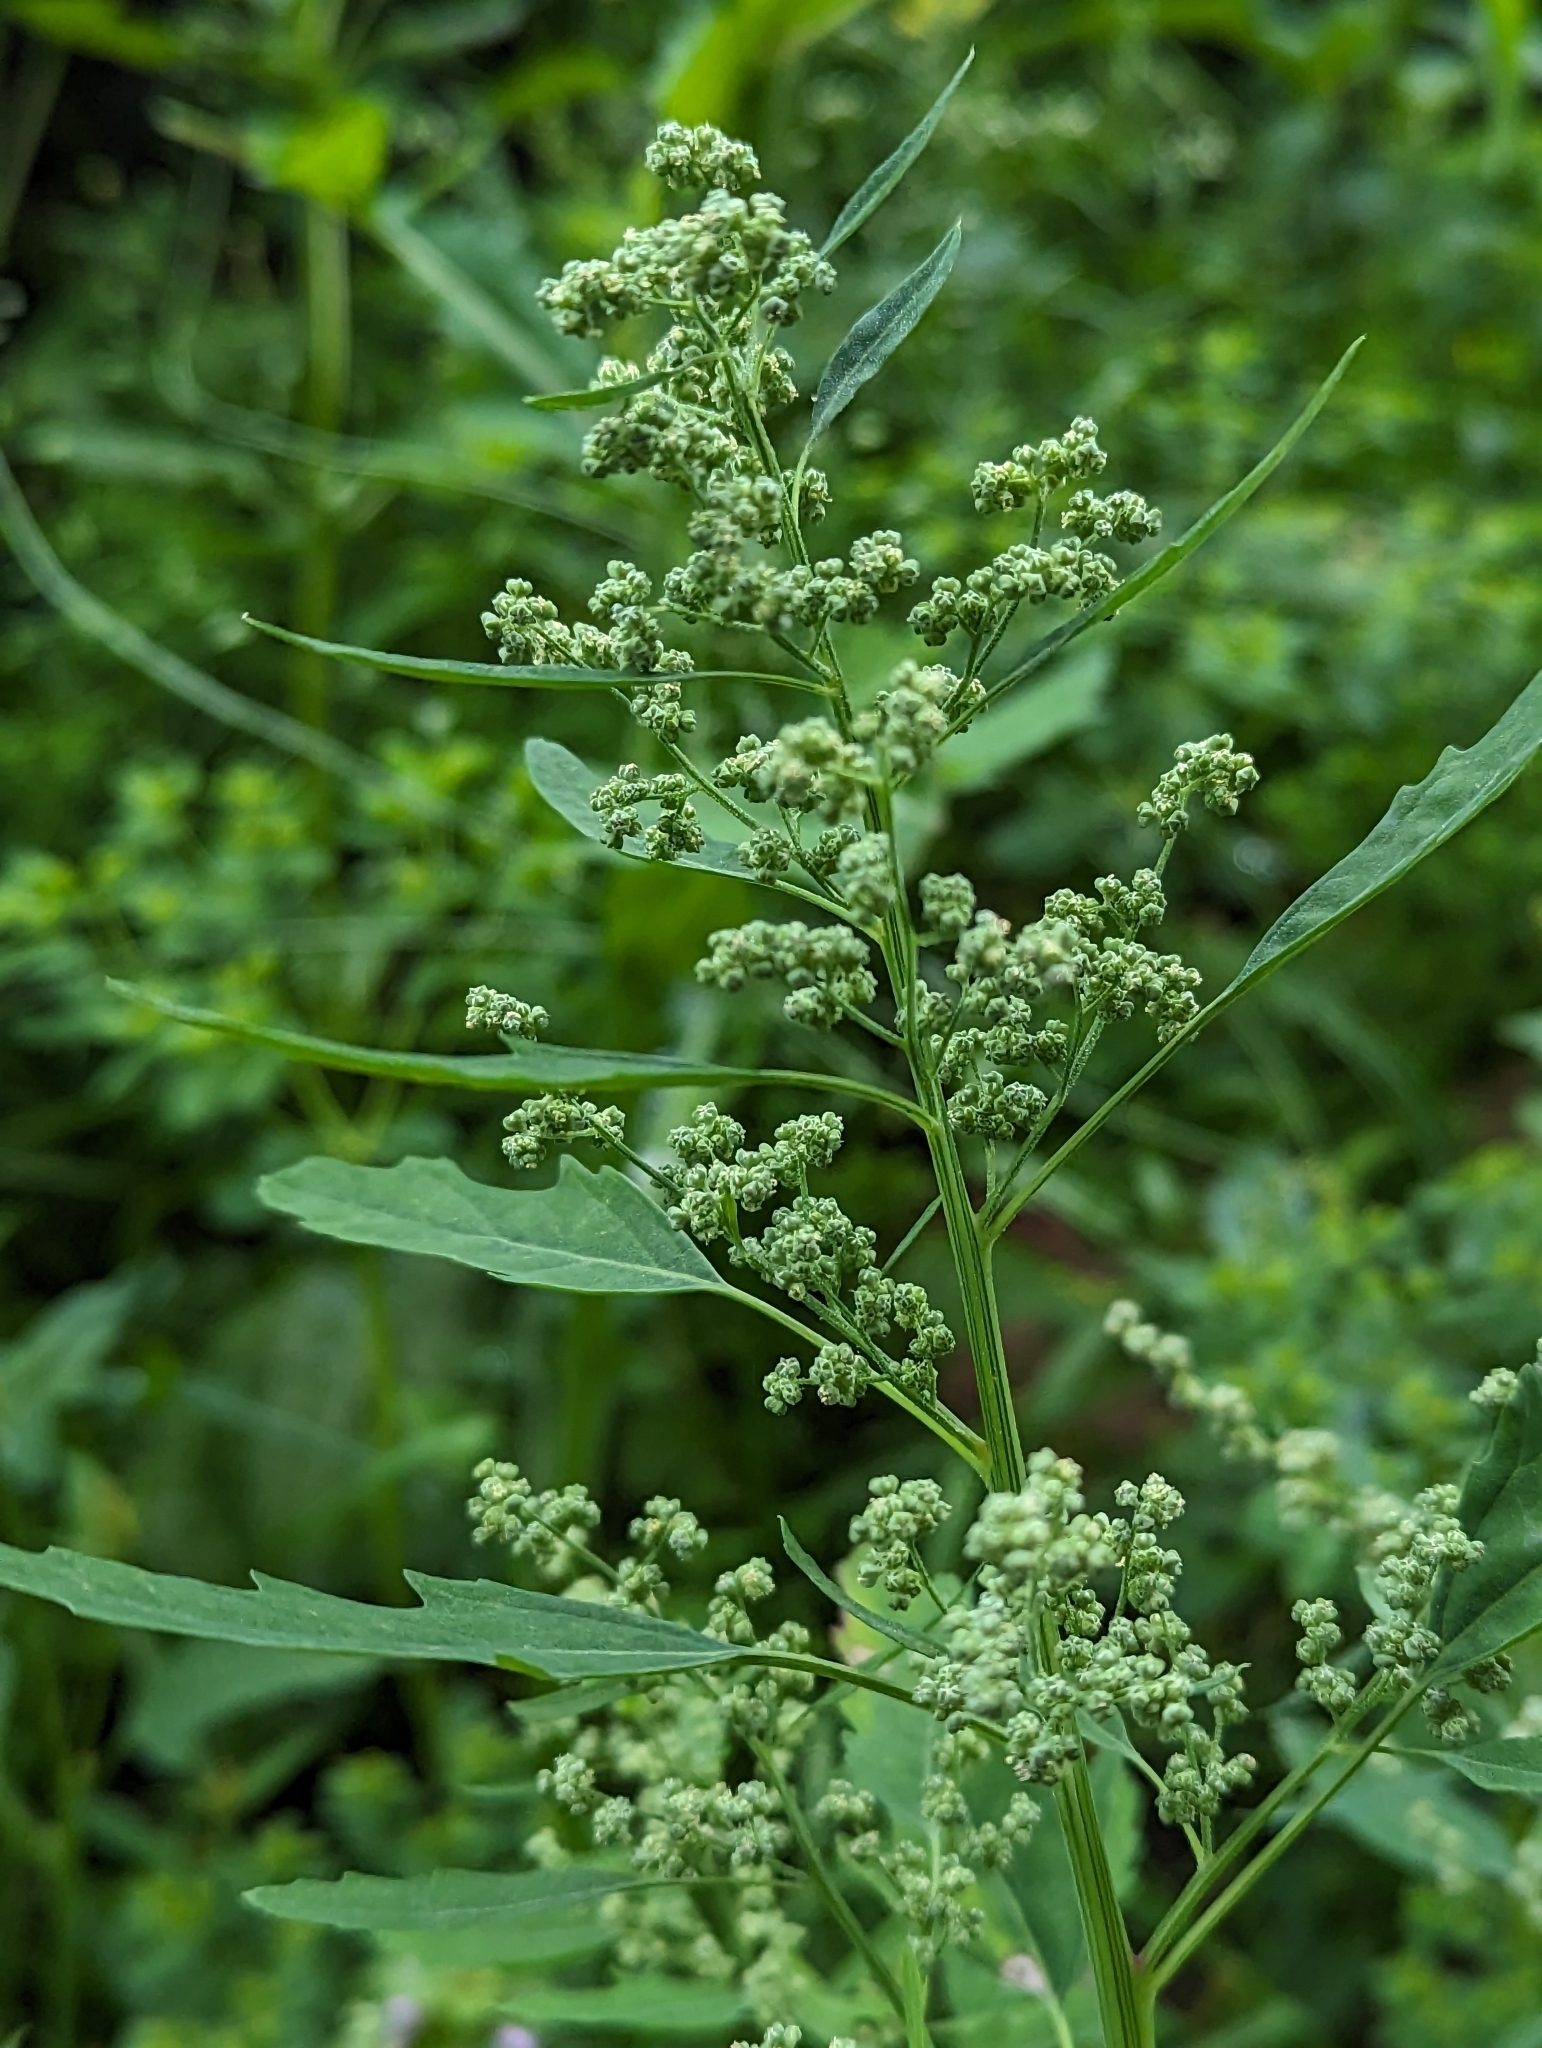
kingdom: Plantae
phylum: Tracheophyta
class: Magnoliopsida
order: Caryophyllales
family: Amaranthaceae
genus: Chenopodium
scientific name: Chenopodium ficifolium
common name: Fig-leaved goosefoot
